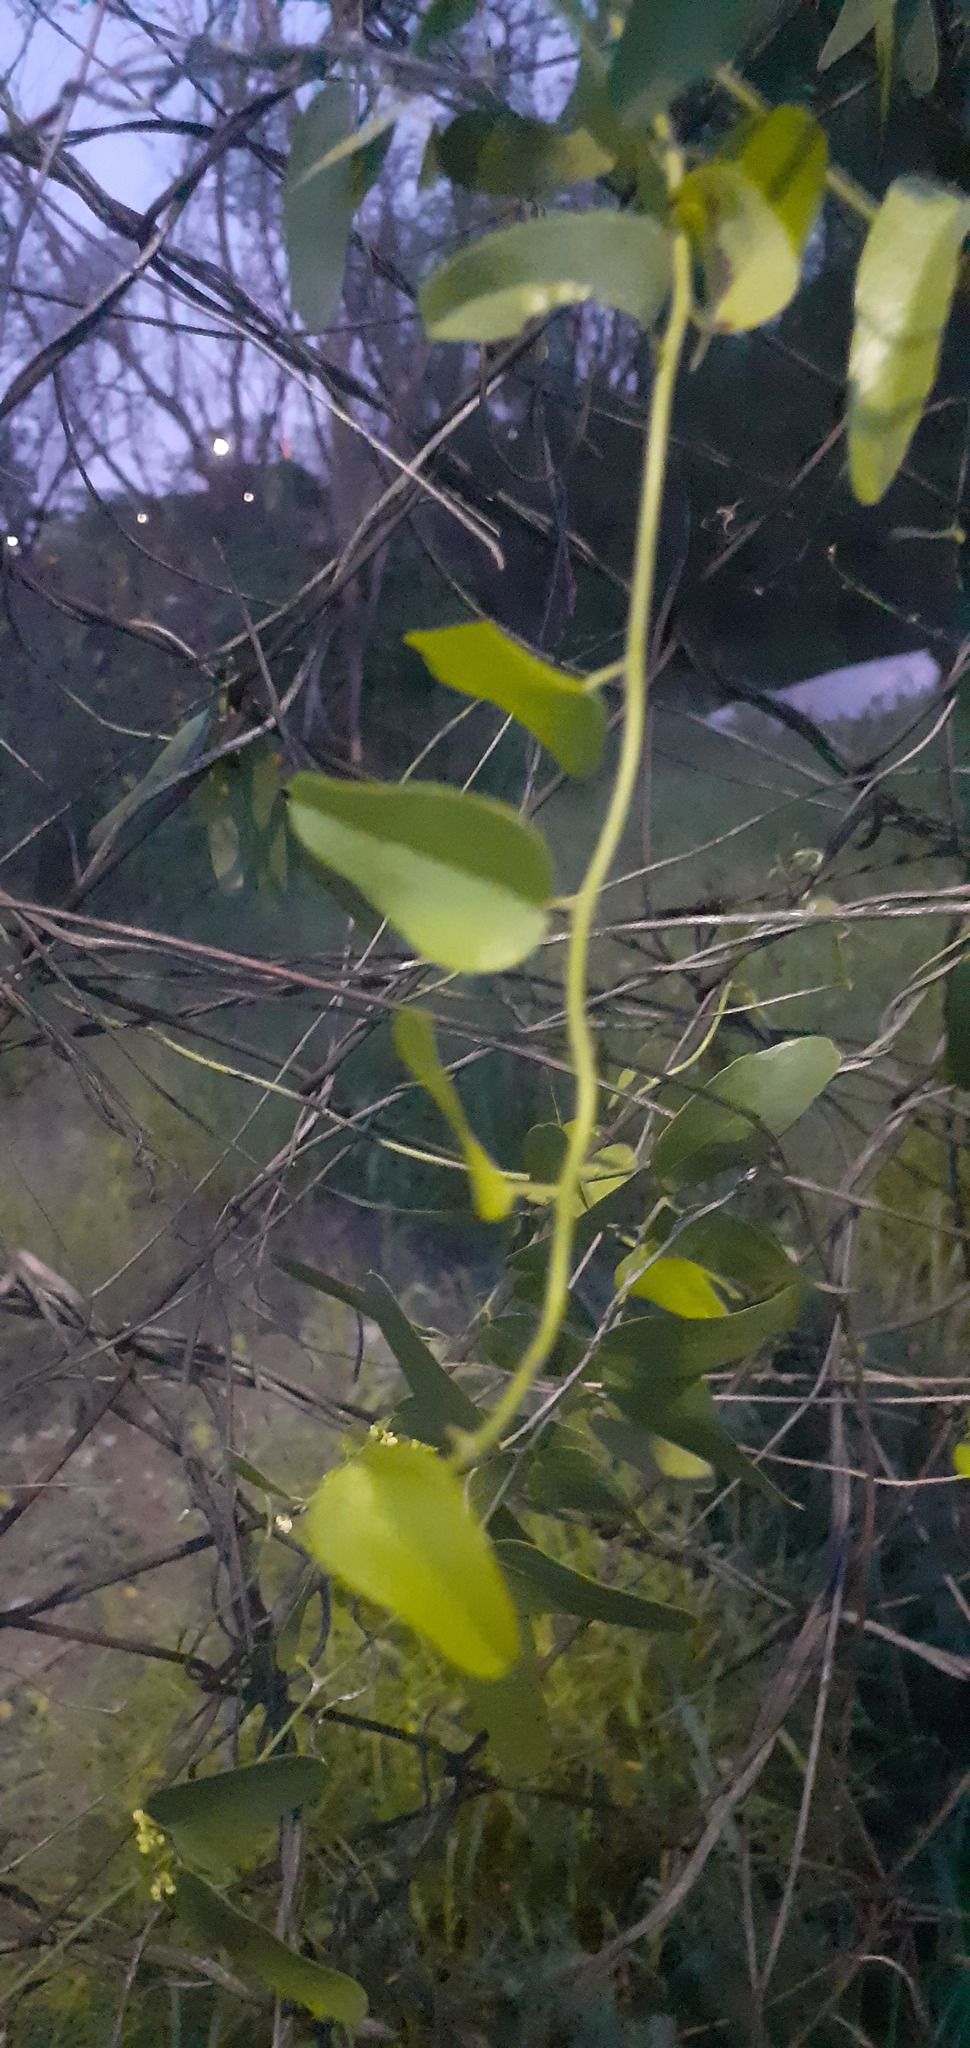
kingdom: Plantae
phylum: Tracheophyta
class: Magnoliopsida
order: Ranunculales
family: Menispermaceae
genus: Cocculus
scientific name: Cocculus diversifolius
